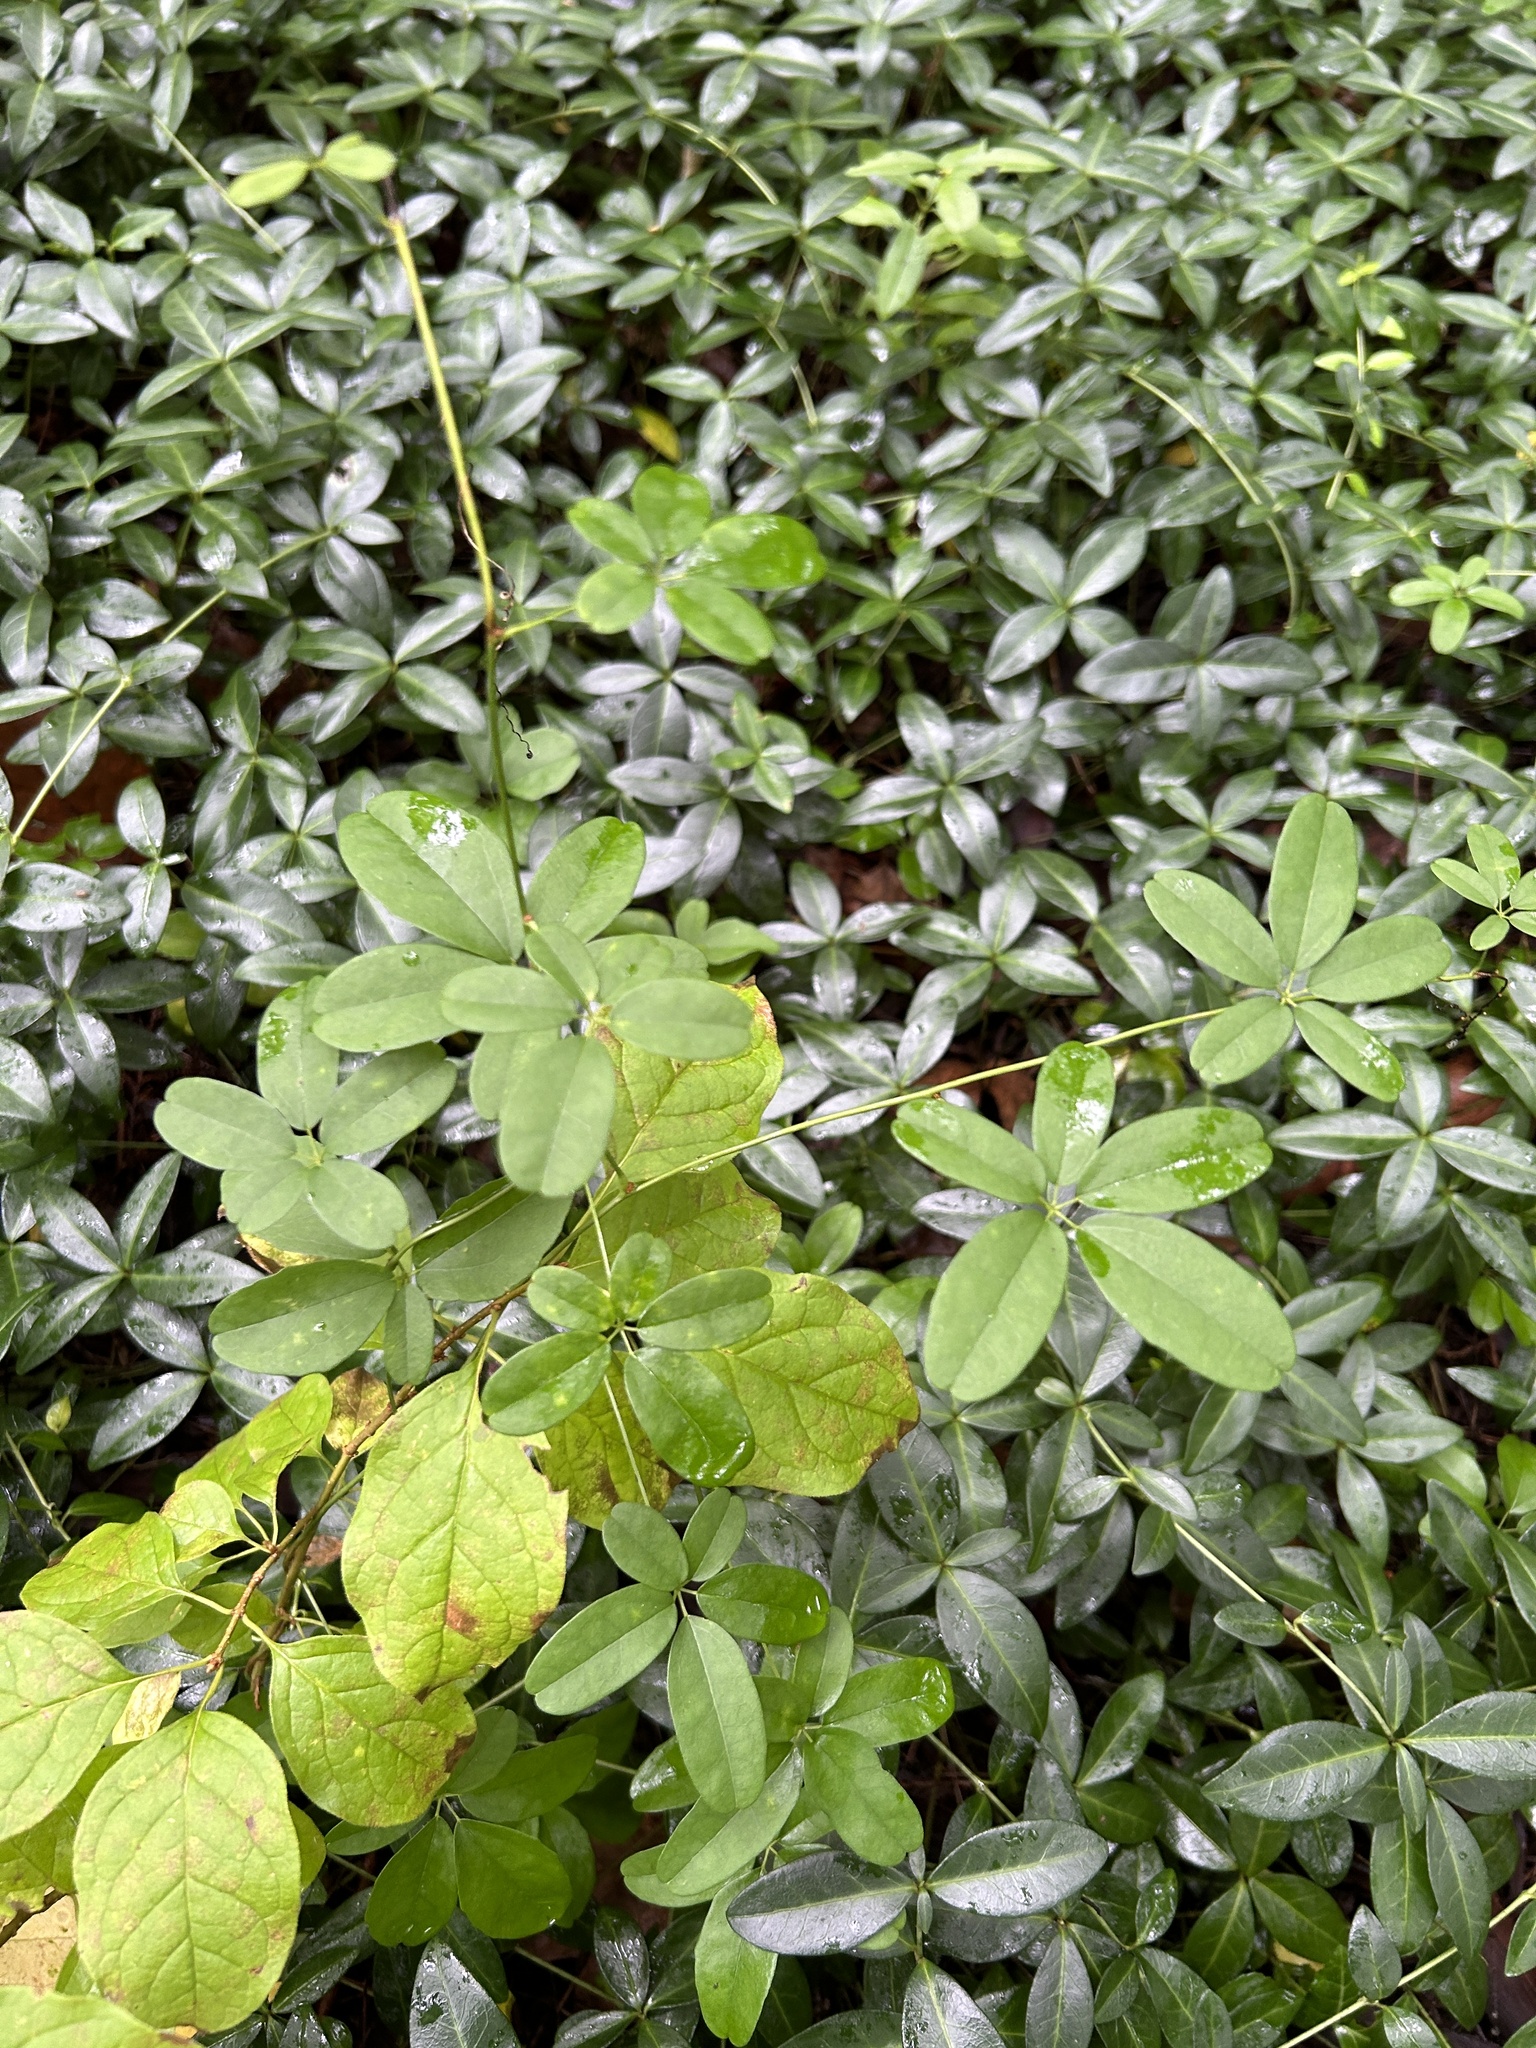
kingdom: Plantae
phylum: Tracheophyta
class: Magnoliopsida
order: Ranunculales
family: Lardizabalaceae
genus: Akebia
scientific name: Akebia quinata
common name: Five-leaf akebia
